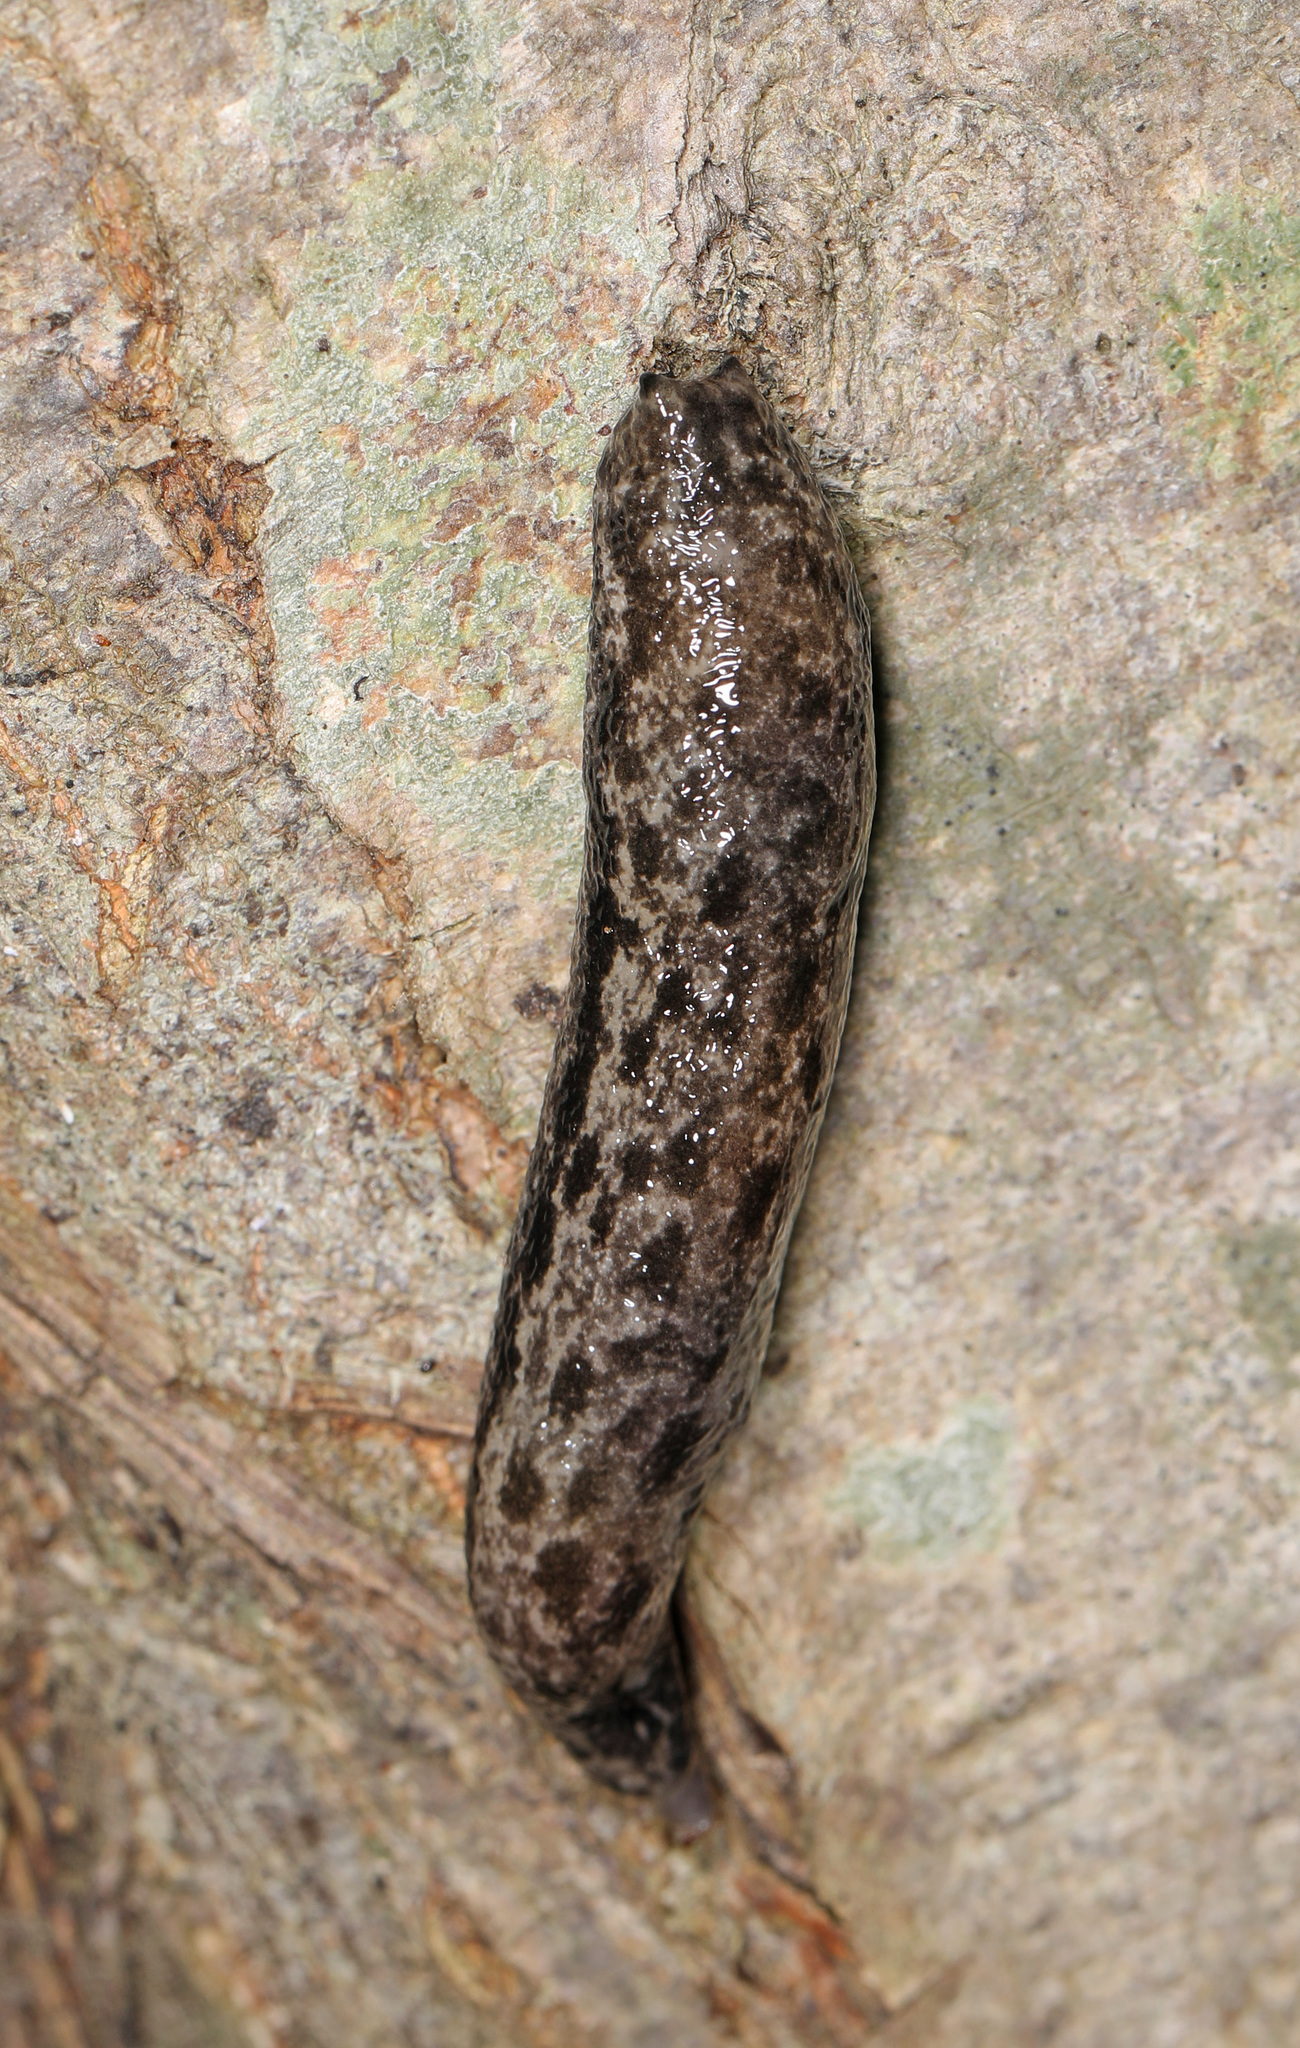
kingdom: Animalia
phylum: Mollusca
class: Gastropoda
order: Stylommatophora
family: Philomycidae
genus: Megapallifera
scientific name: Megapallifera mutabilis
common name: Changeable mantleslug
